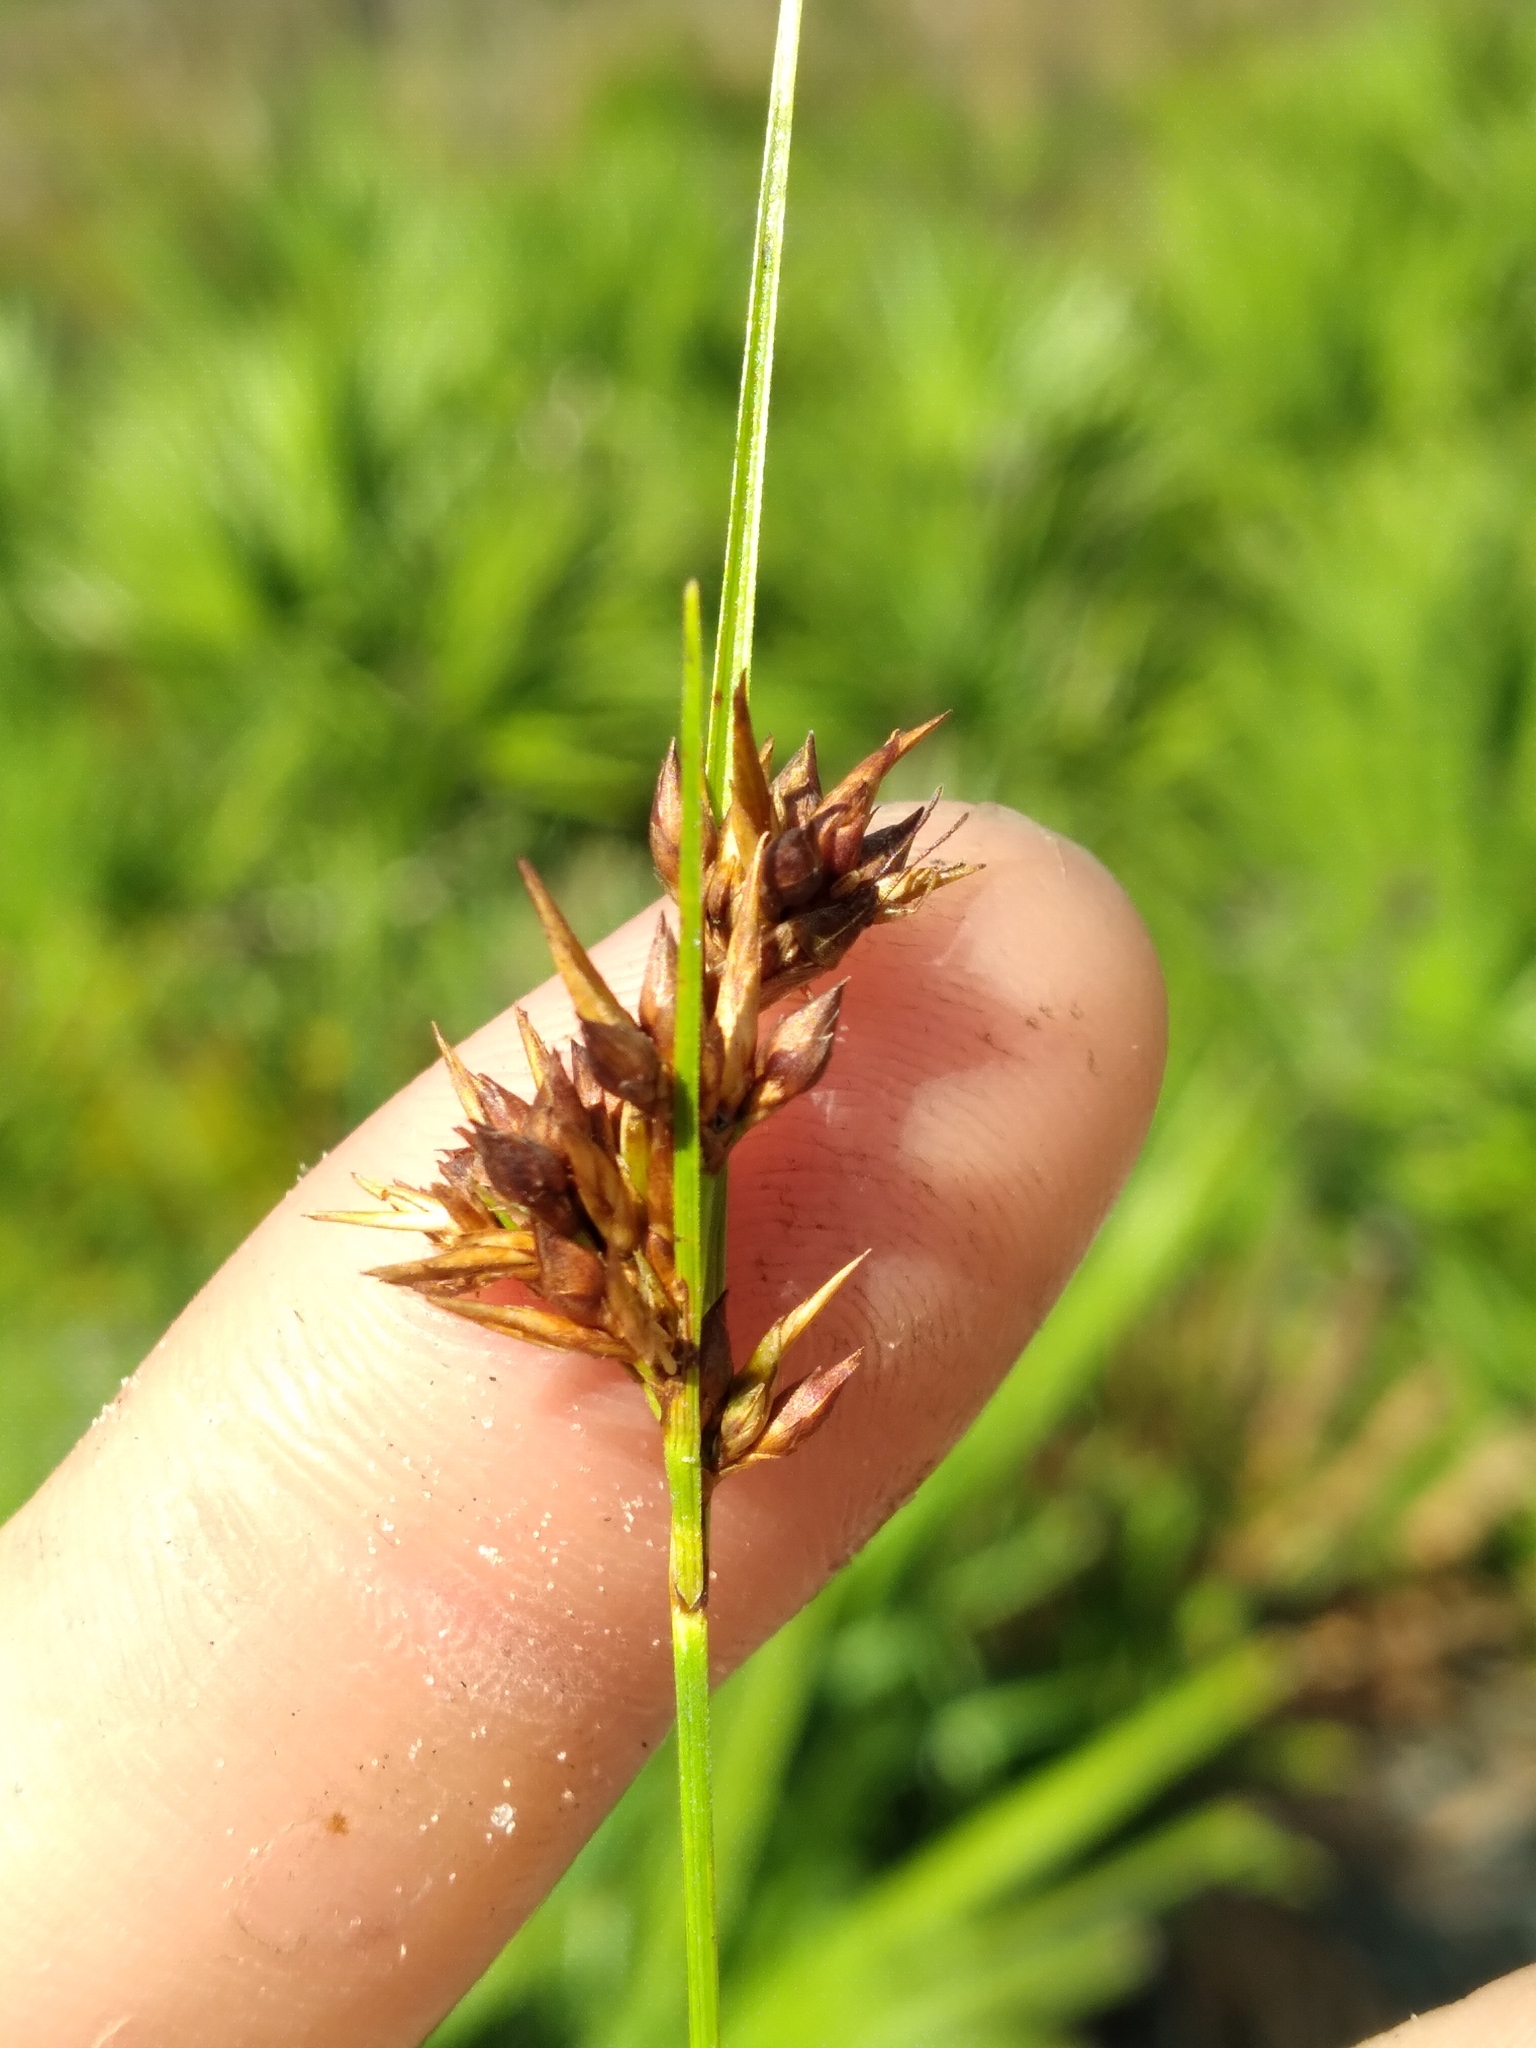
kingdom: Plantae
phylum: Tracheophyta
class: Liliopsida
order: Poales
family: Cyperaceae
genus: Rhynchospora
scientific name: Rhynchospora intermedia
